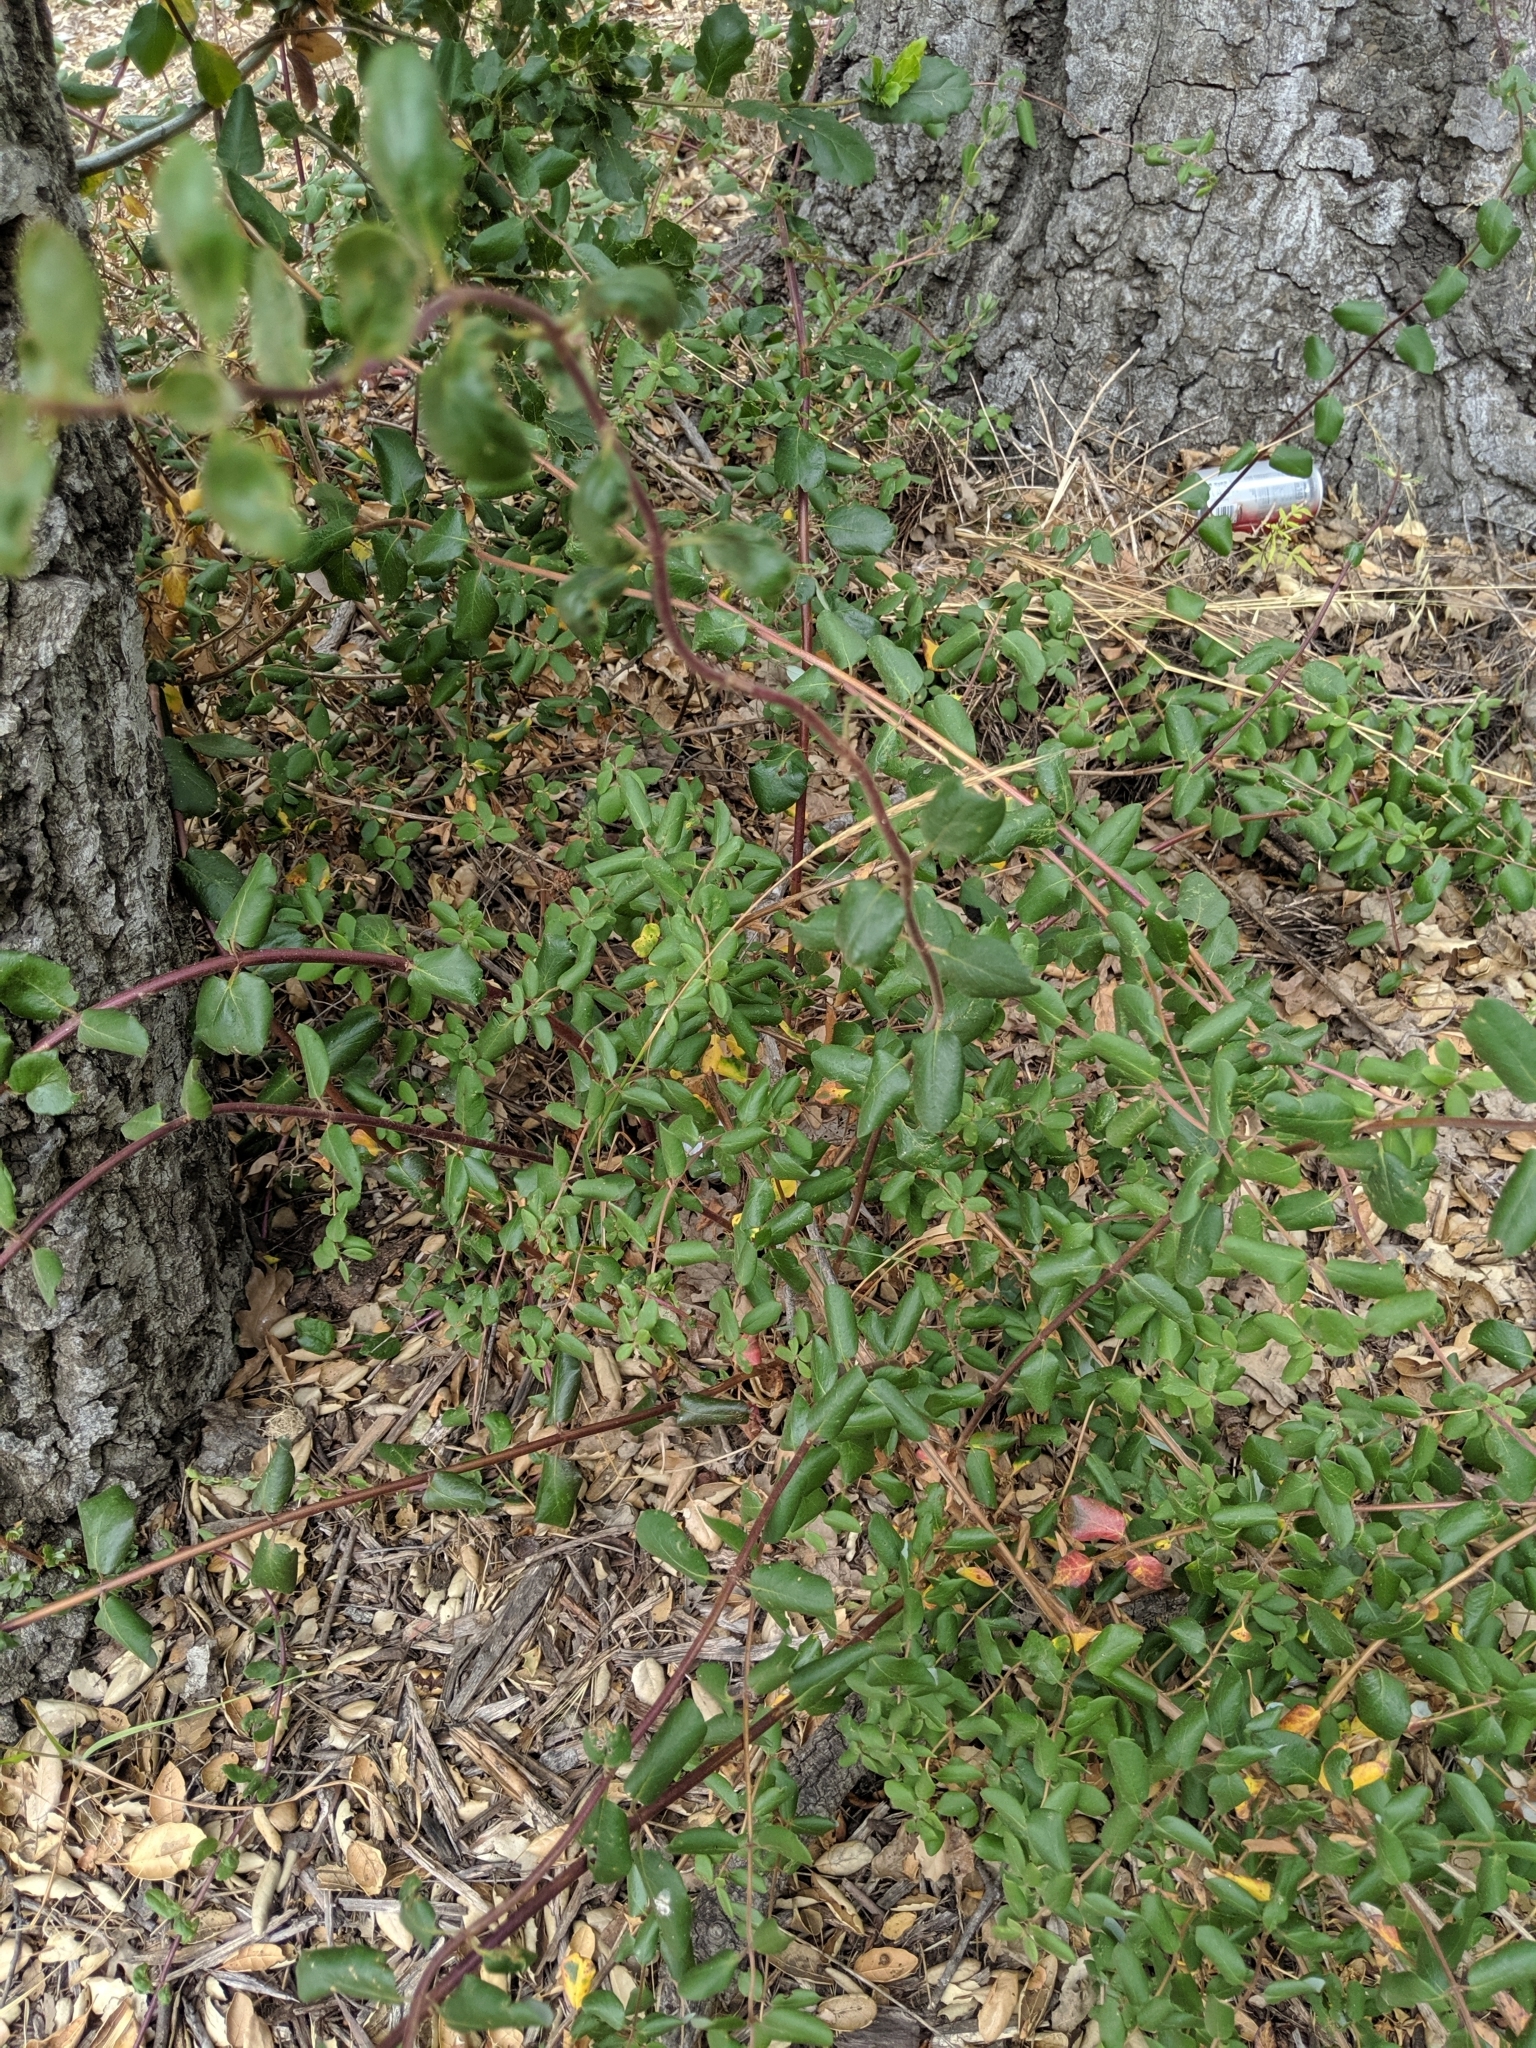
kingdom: Plantae
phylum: Tracheophyta
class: Magnoliopsida
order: Dipsacales
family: Caprifoliaceae
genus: Lonicera
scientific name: Lonicera subspicata
